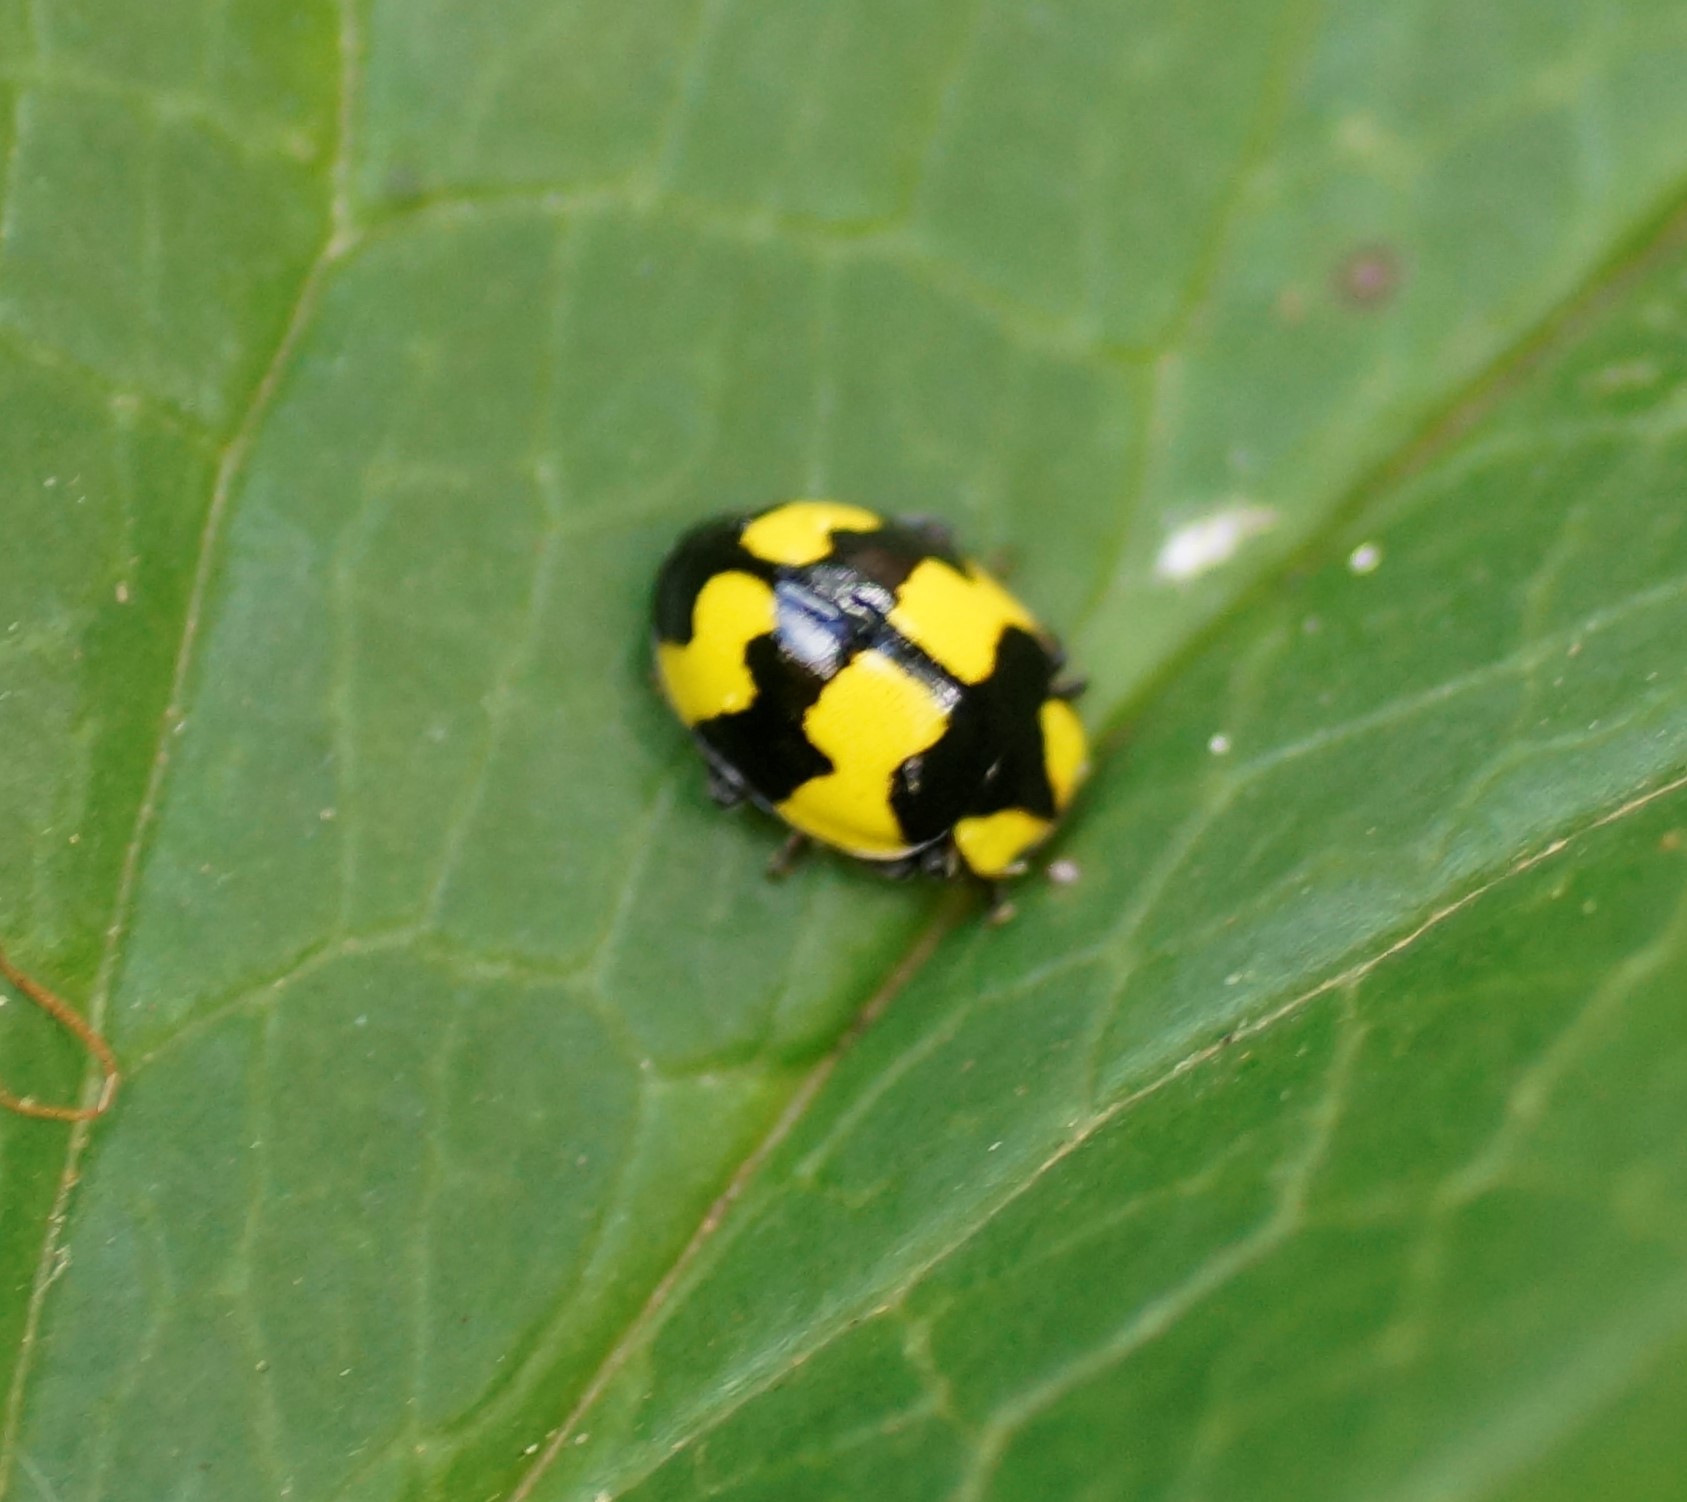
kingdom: Animalia
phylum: Arthropoda
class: Insecta
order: Coleoptera
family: Coccinellidae
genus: Illeis
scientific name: Illeis galbula
